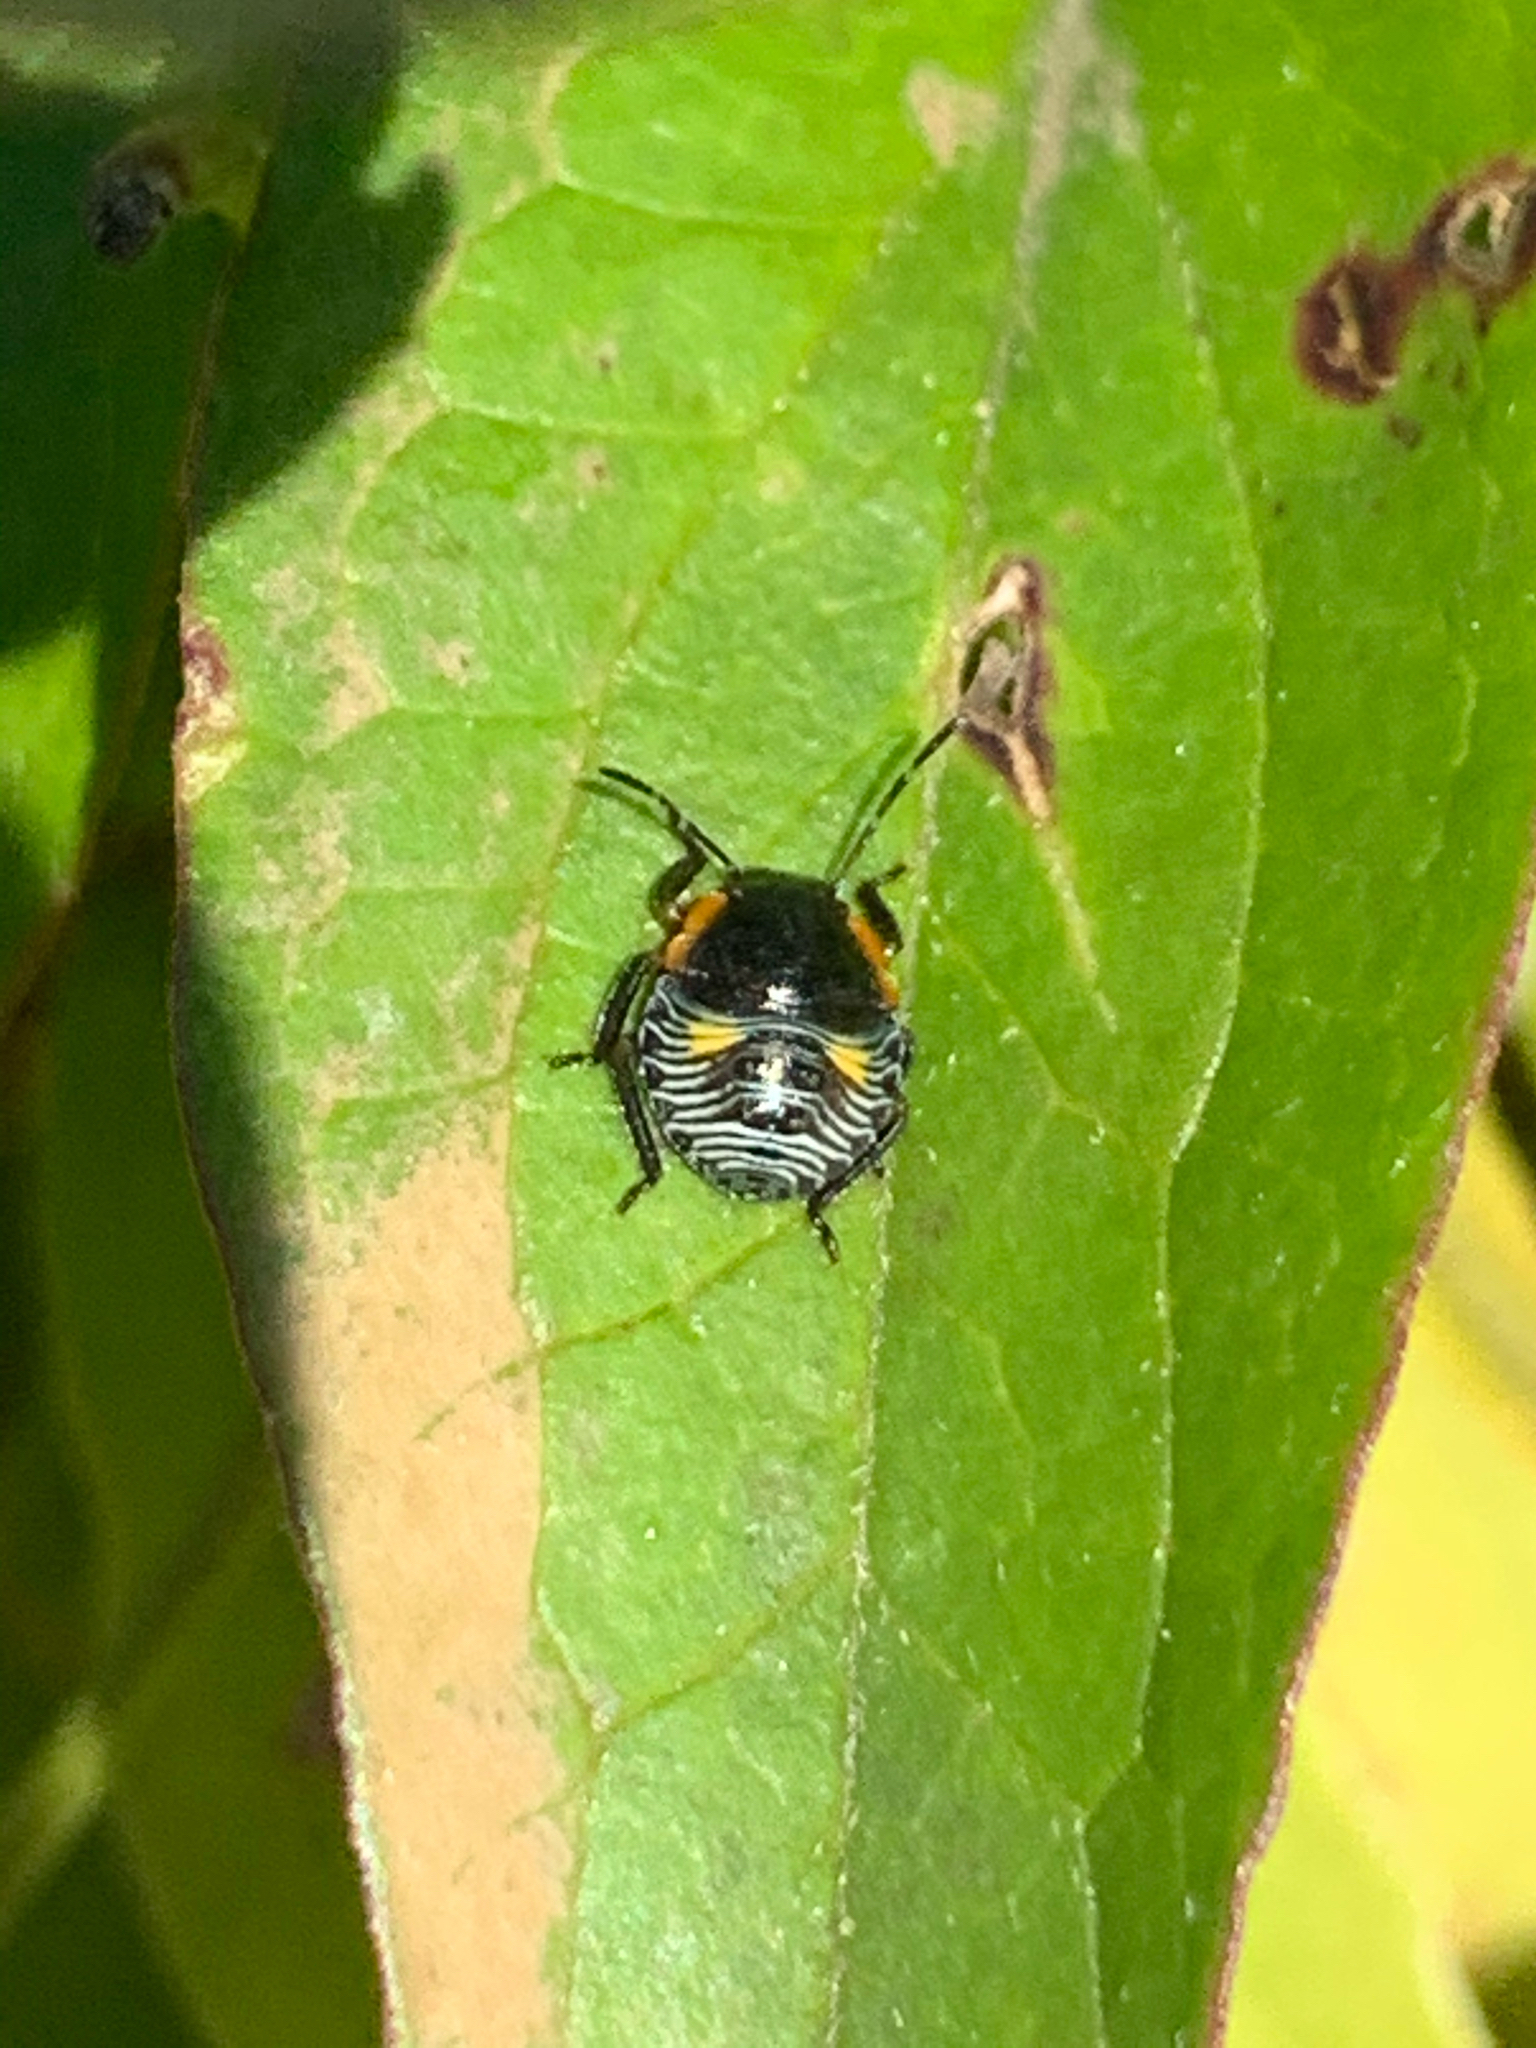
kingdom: Animalia
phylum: Arthropoda
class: Insecta
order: Hemiptera
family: Pentatomidae
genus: Chinavia
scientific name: Chinavia hilaris
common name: Green stink bug
